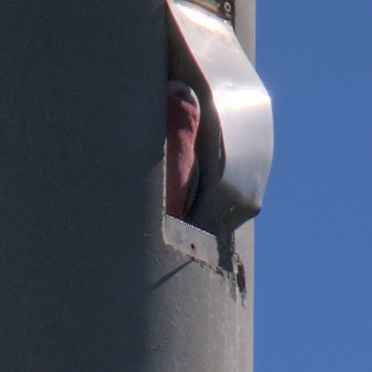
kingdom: Animalia
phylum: Chordata
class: Aves
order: Psittaciformes
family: Psittacidae
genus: Eolophus
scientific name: Eolophus roseicapilla
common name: Galah
